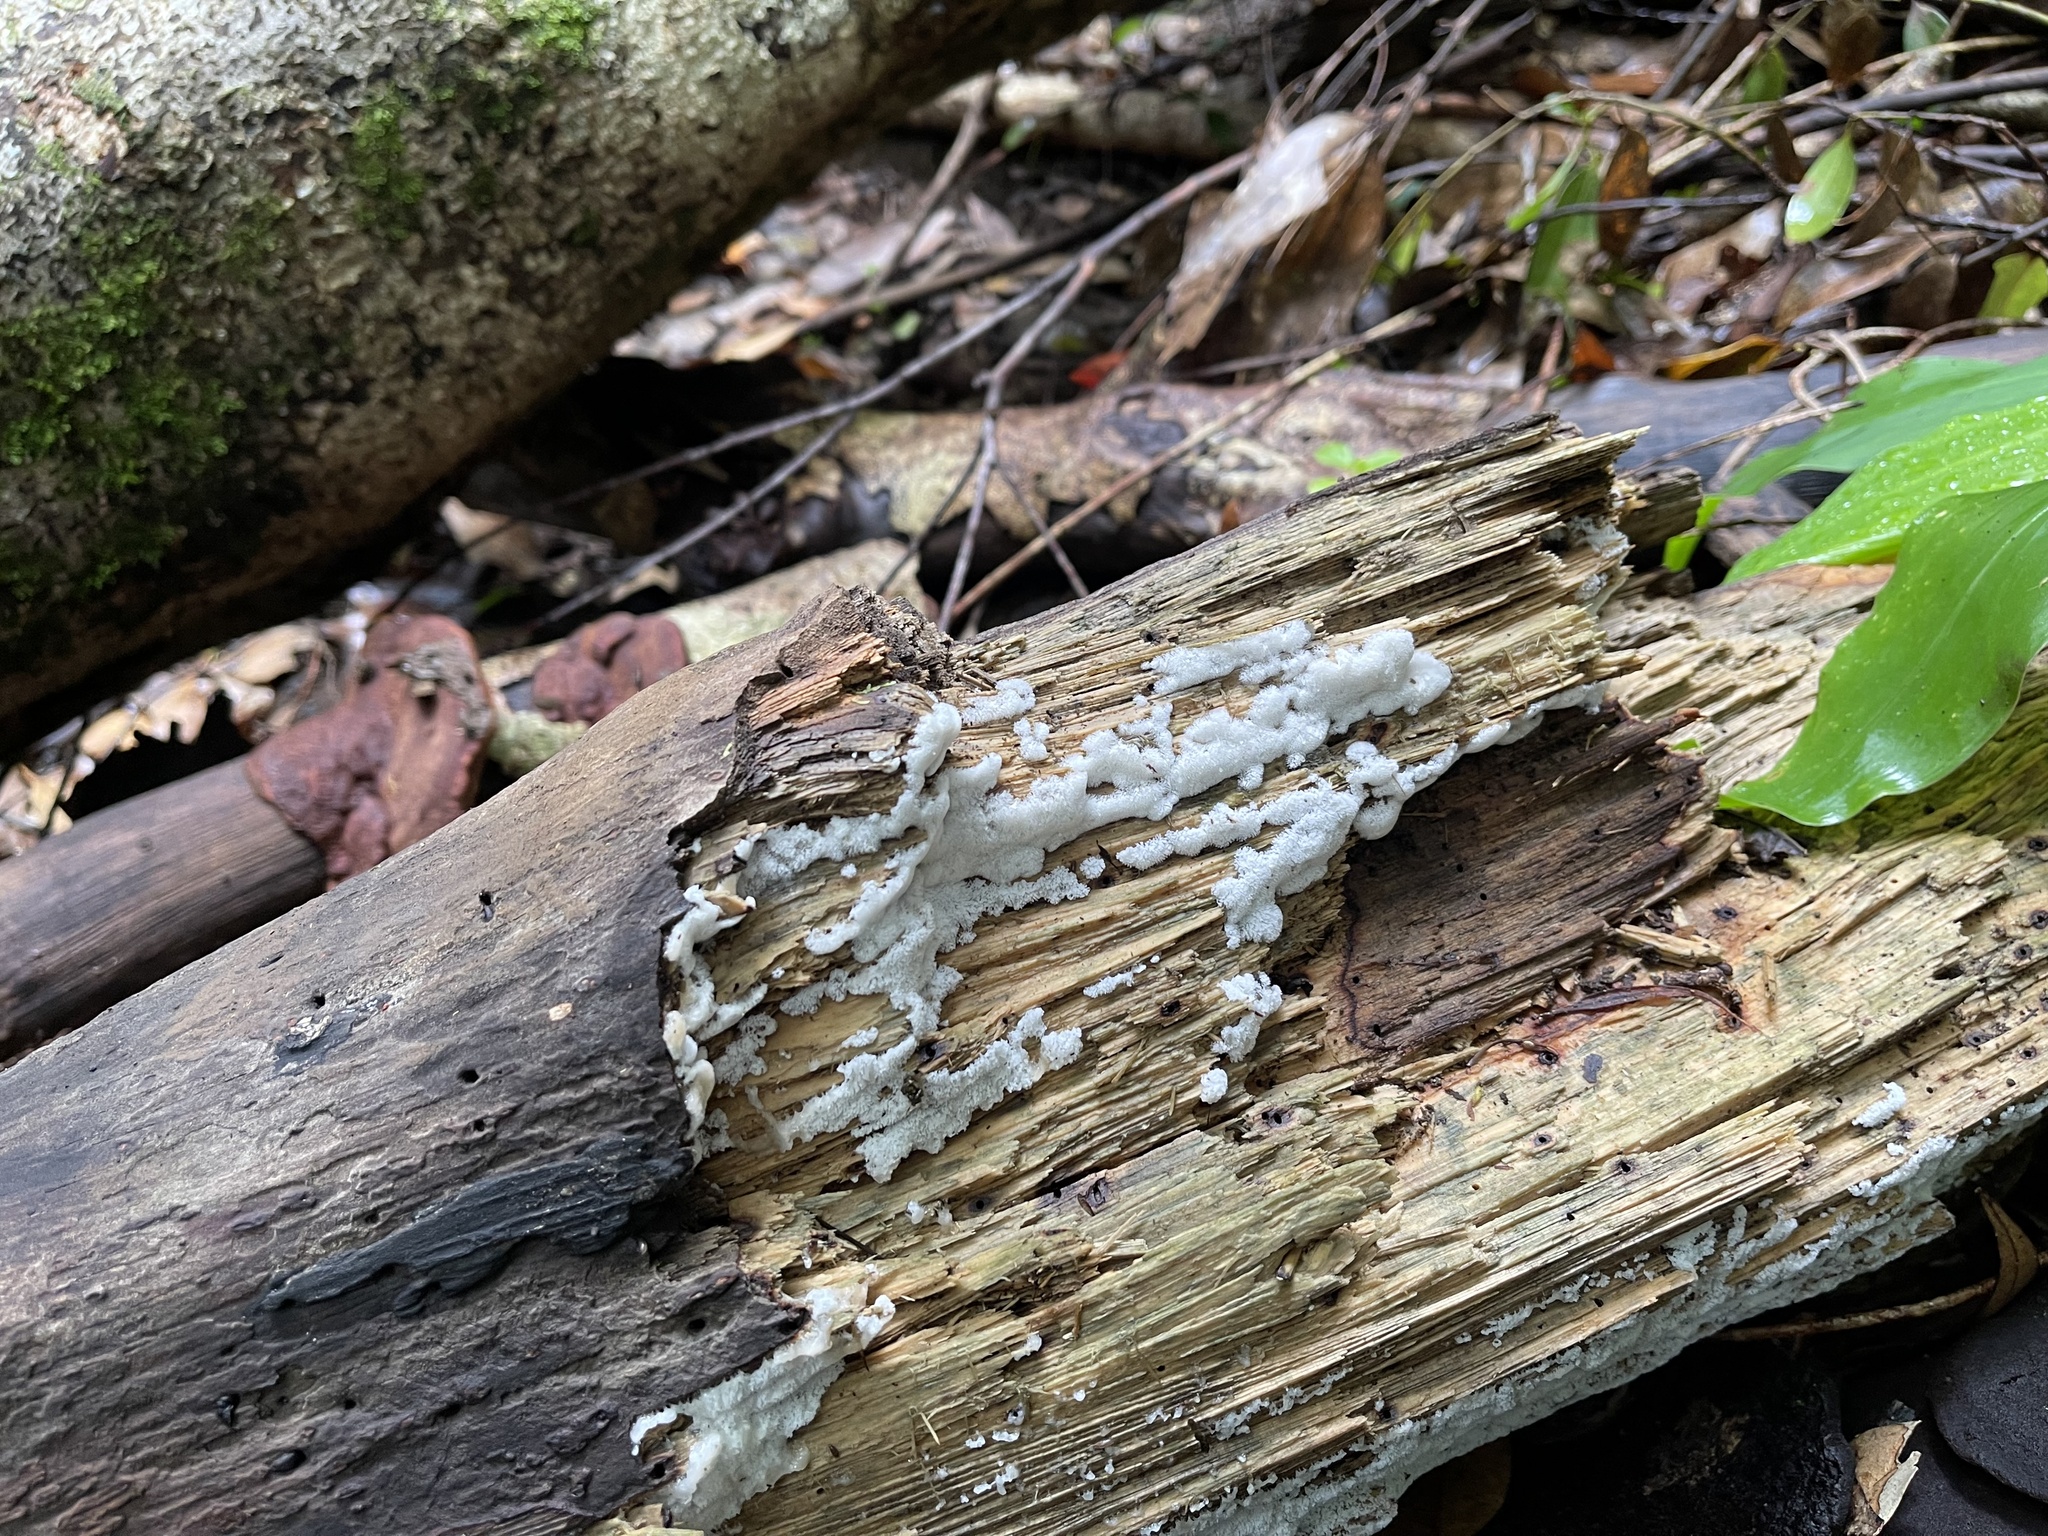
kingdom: Protozoa
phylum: Mycetozoa
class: Protosteliomycetes
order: Ceratiomyxales
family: Ceratiomyxaceae
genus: Ceratiomyxa
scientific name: Ceratiomyxa fruticulosa
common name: Honeycomb coral slime mold
